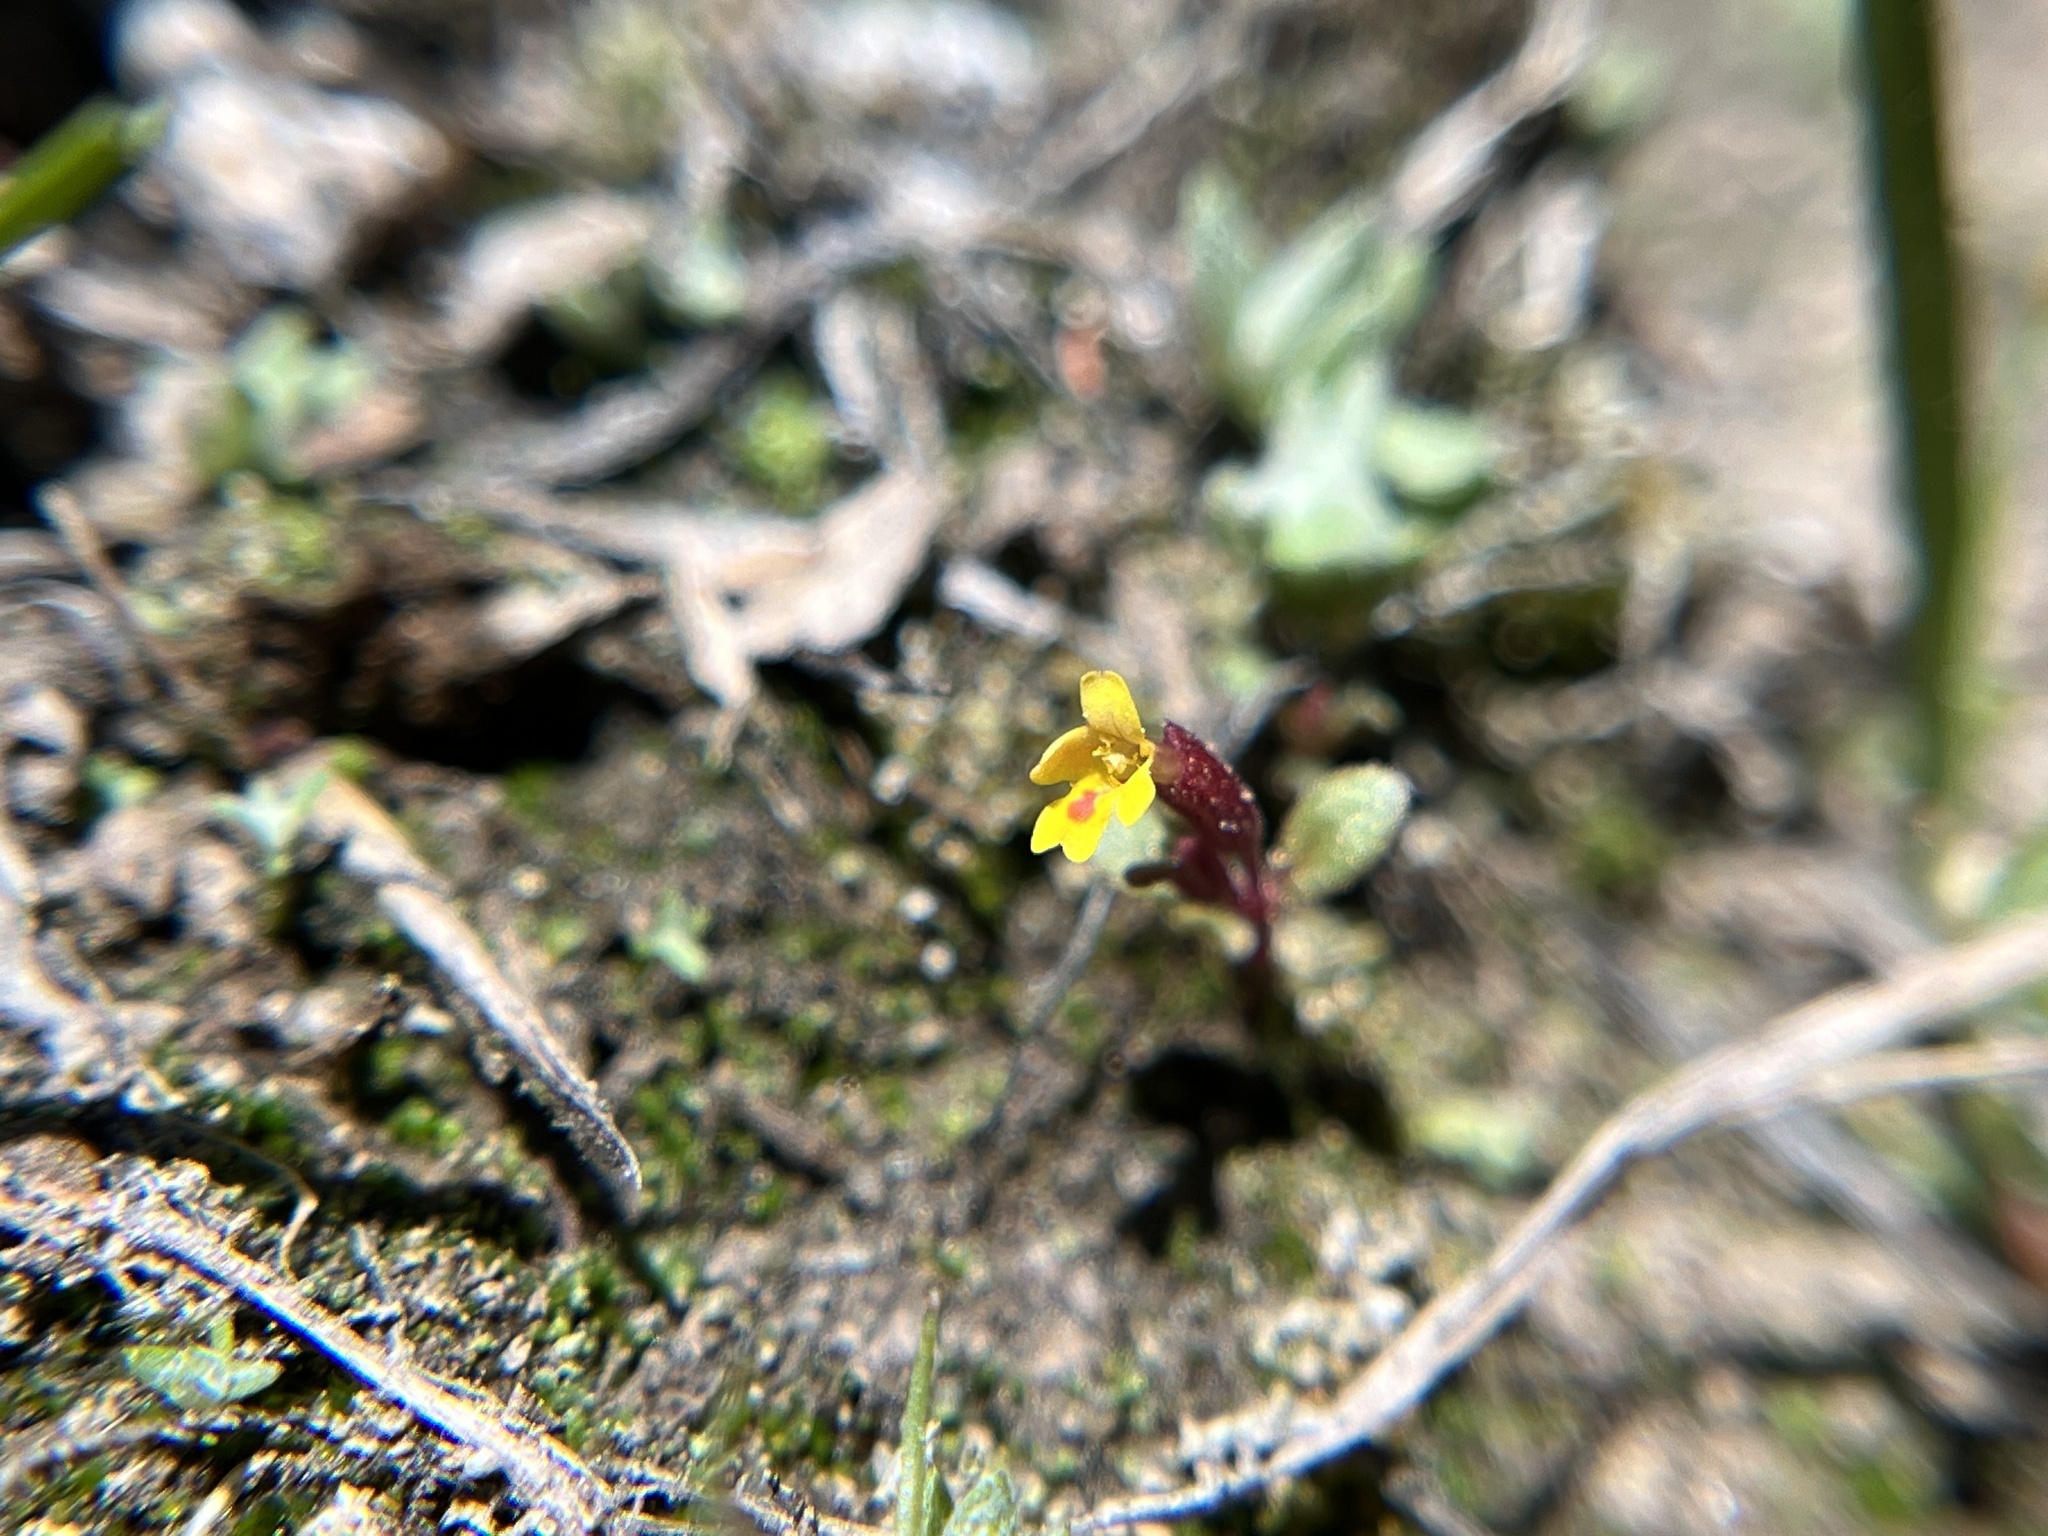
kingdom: Plantae
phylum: Tracheophyta
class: Magnoliopsida
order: Lamiales
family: Phrymaceae
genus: Erythranthe
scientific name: Erythranthe suksdorfii
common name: Suksdorf's monkeyflower
